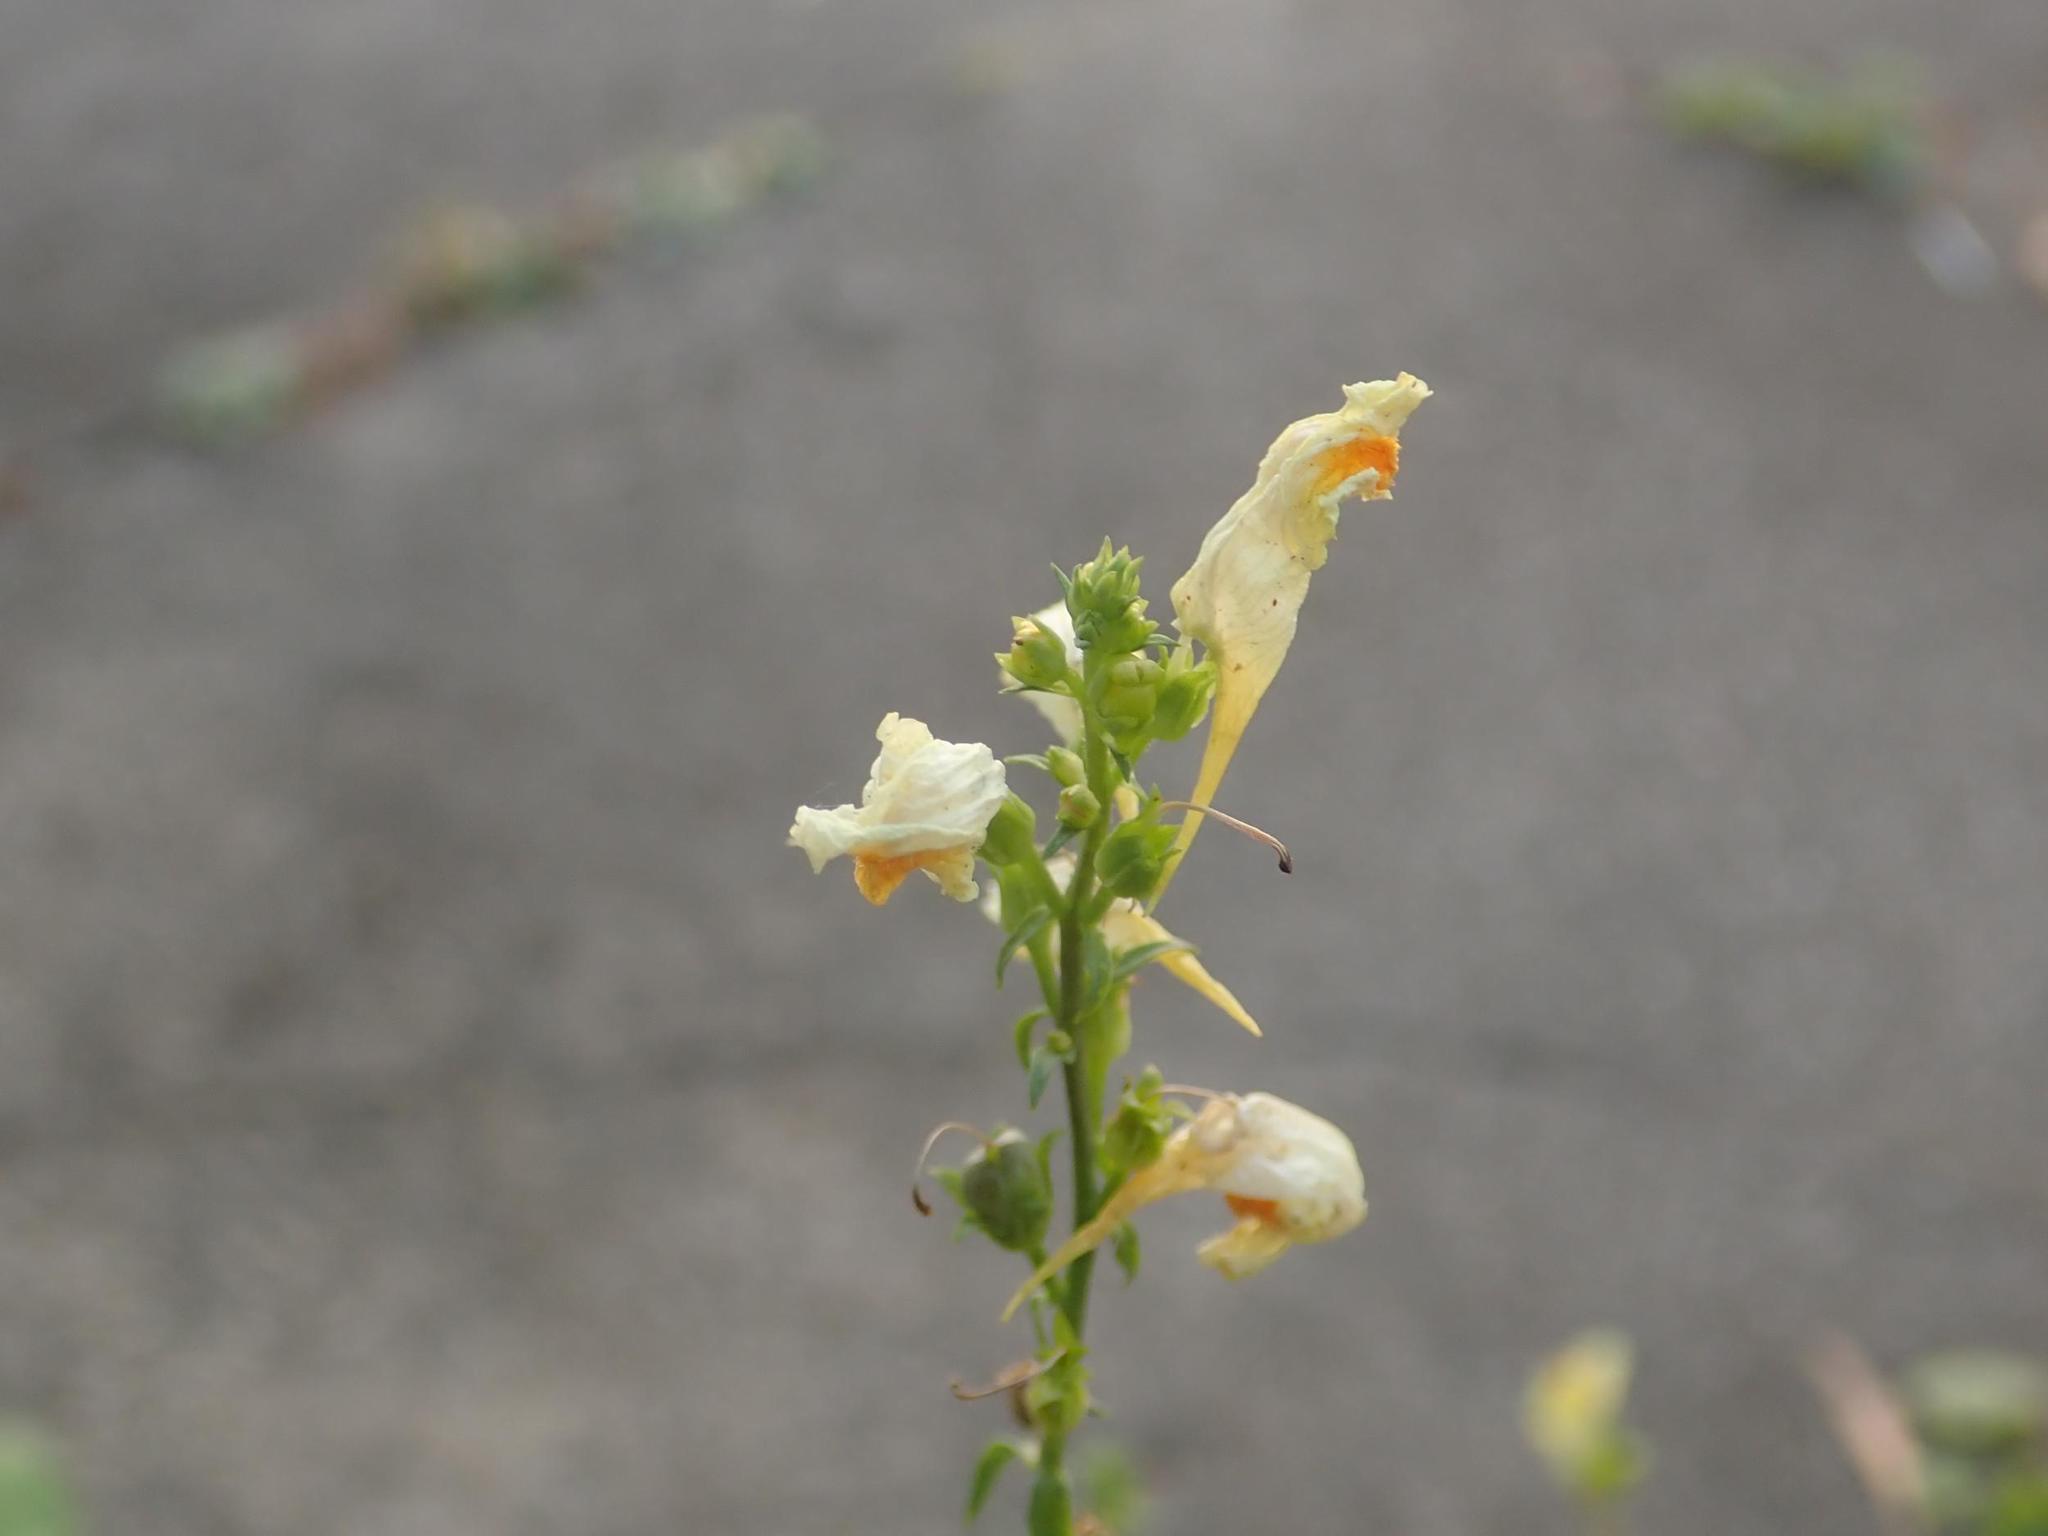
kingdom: Plantae
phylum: Tracheophyta
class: Magnoliopsida
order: Lamiales
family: Plantaginaceae
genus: Linaria
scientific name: Linaria vulgaris
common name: Butter and eggs
